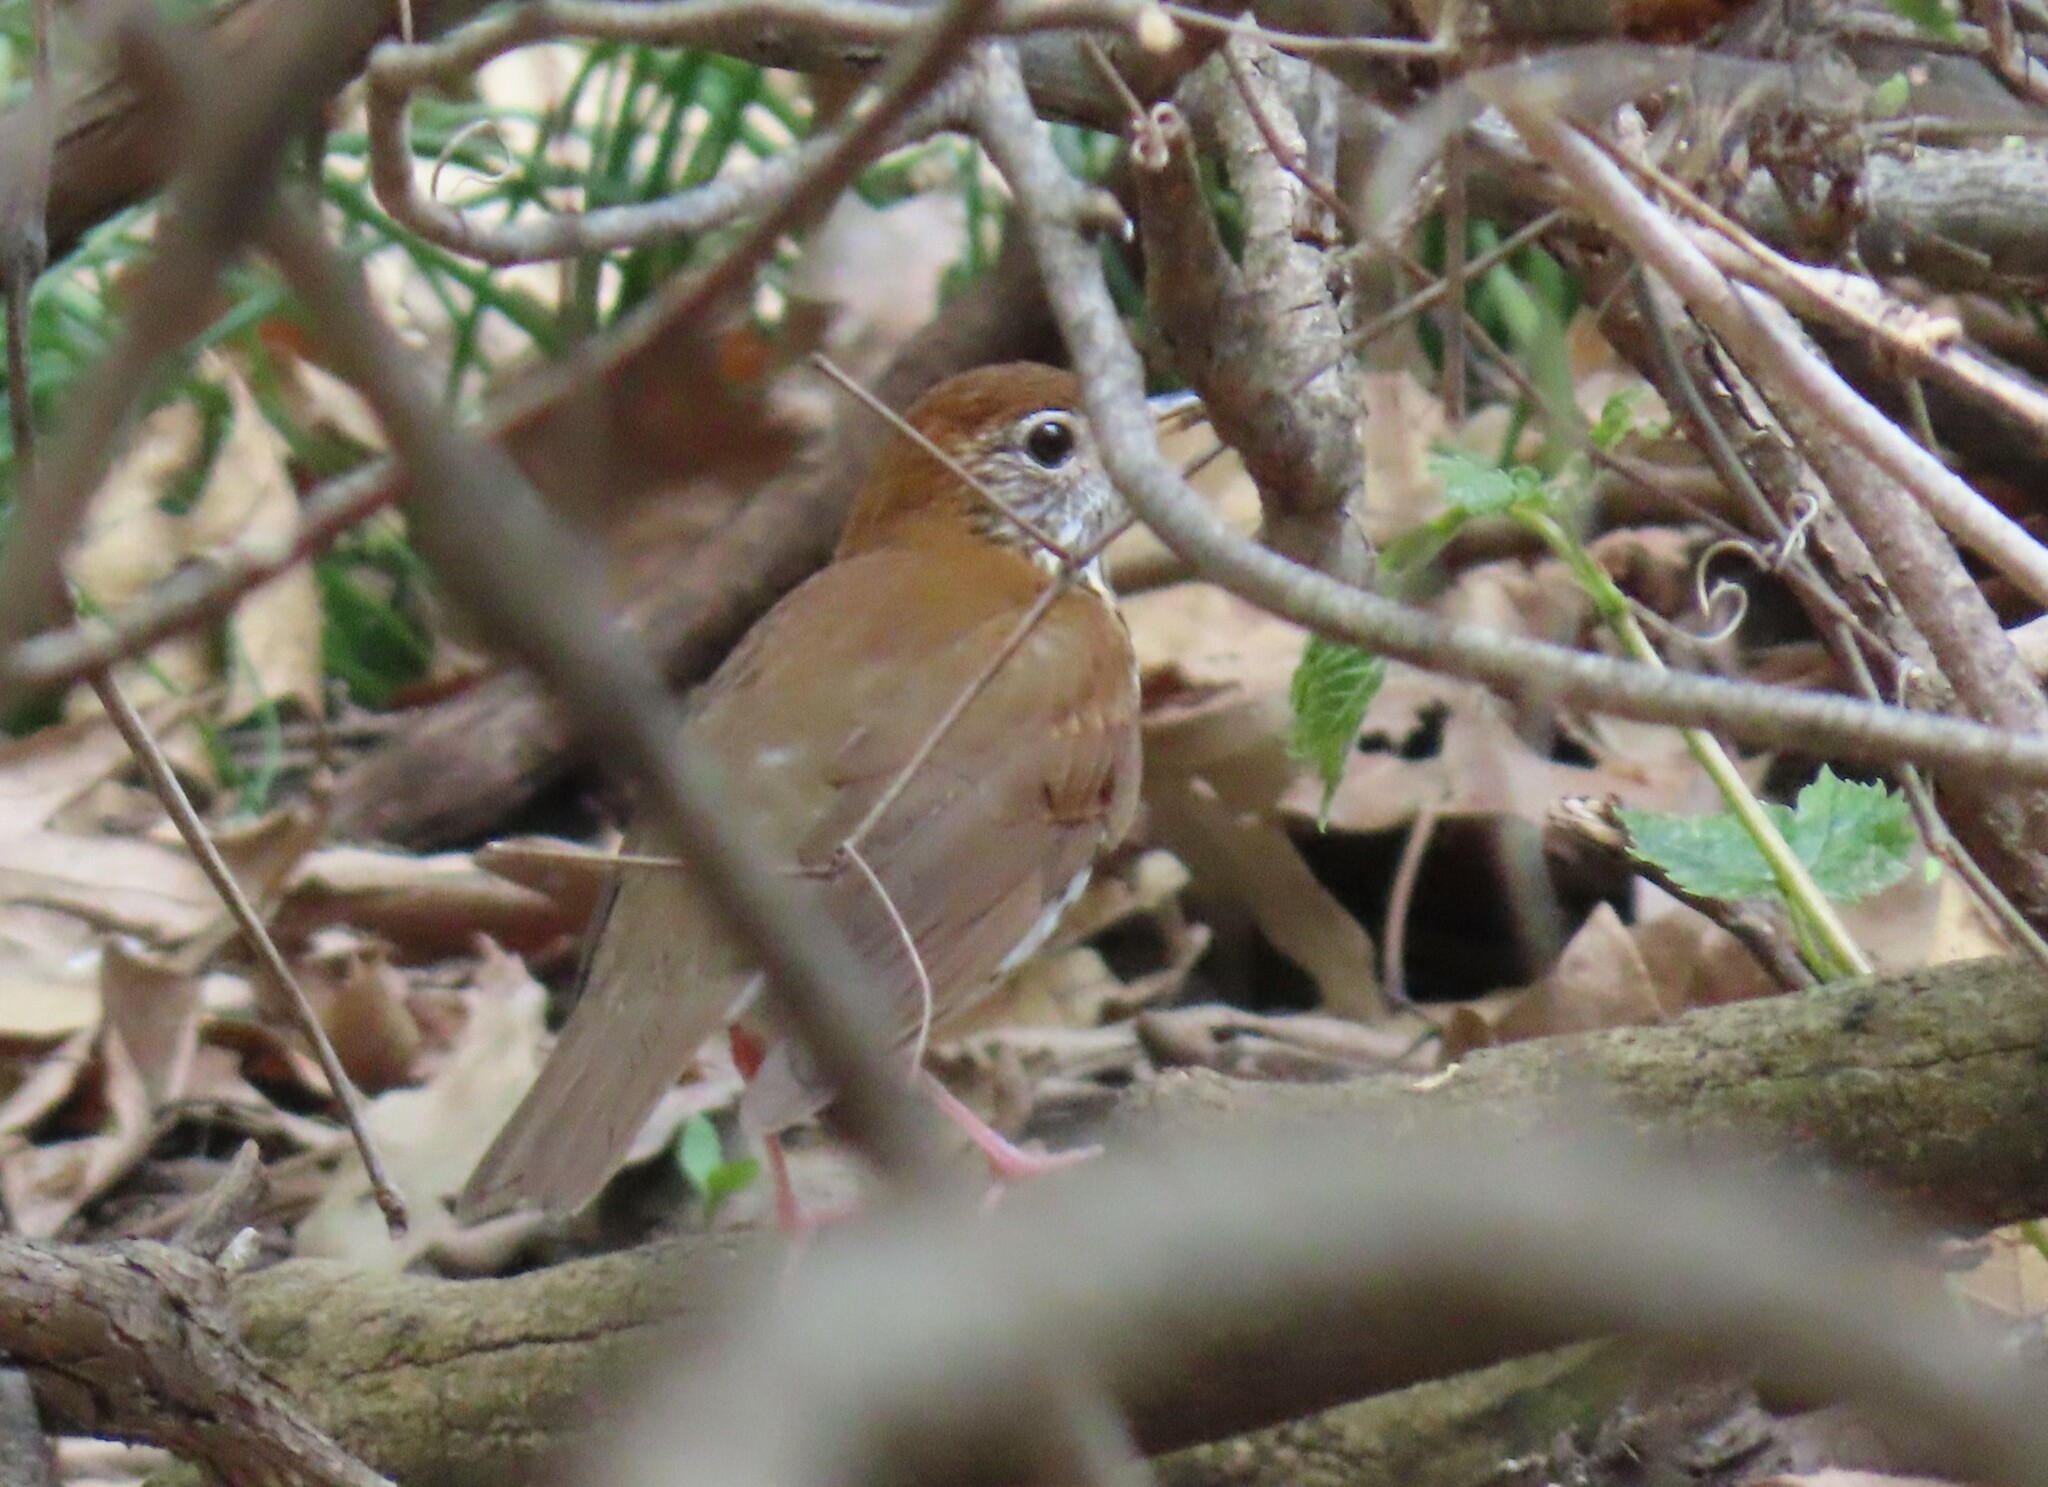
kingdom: Animalia
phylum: Chordata
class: Aves
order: Passeriformes
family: Turdidae
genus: Hylocichla
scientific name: Hylocichla mustelina
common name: Wood thrush
